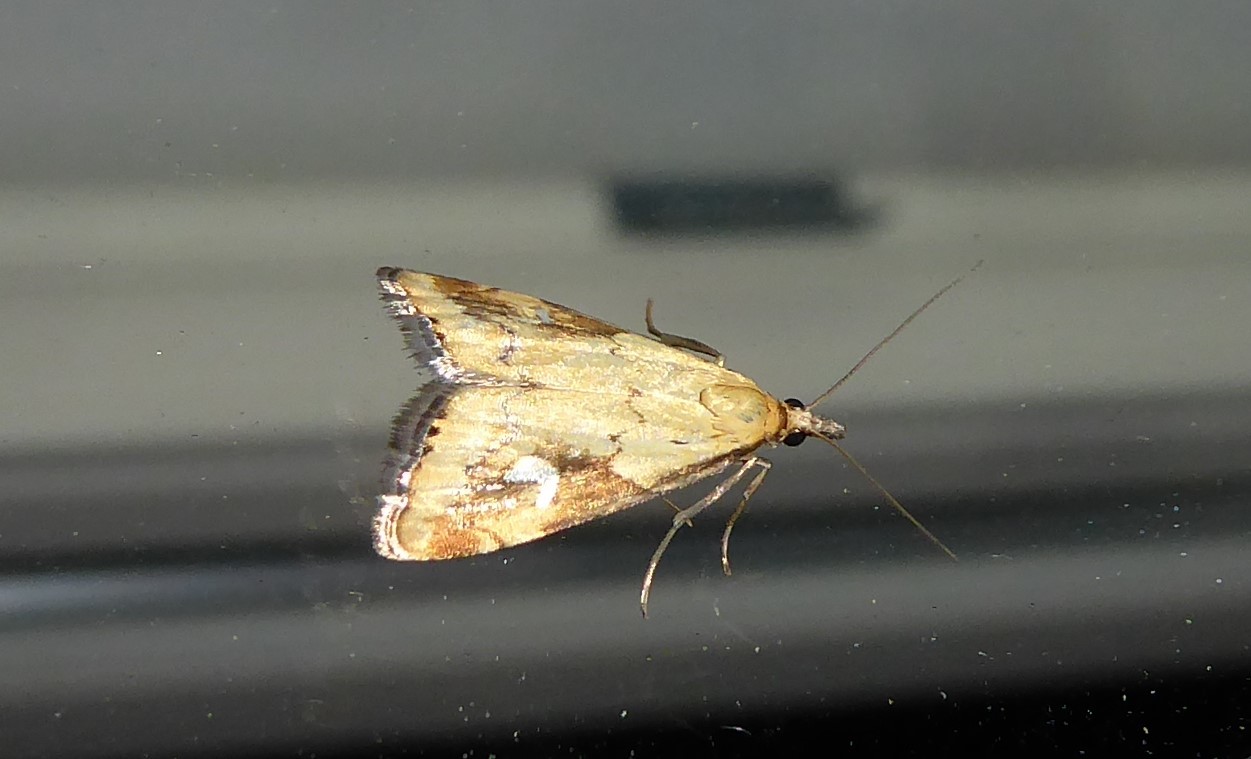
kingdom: Animalia
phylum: Arthropoda
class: Insecta
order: Lepidoptera
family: Crambidae
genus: Glaucocharis
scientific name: Glaucocharis lepidella
